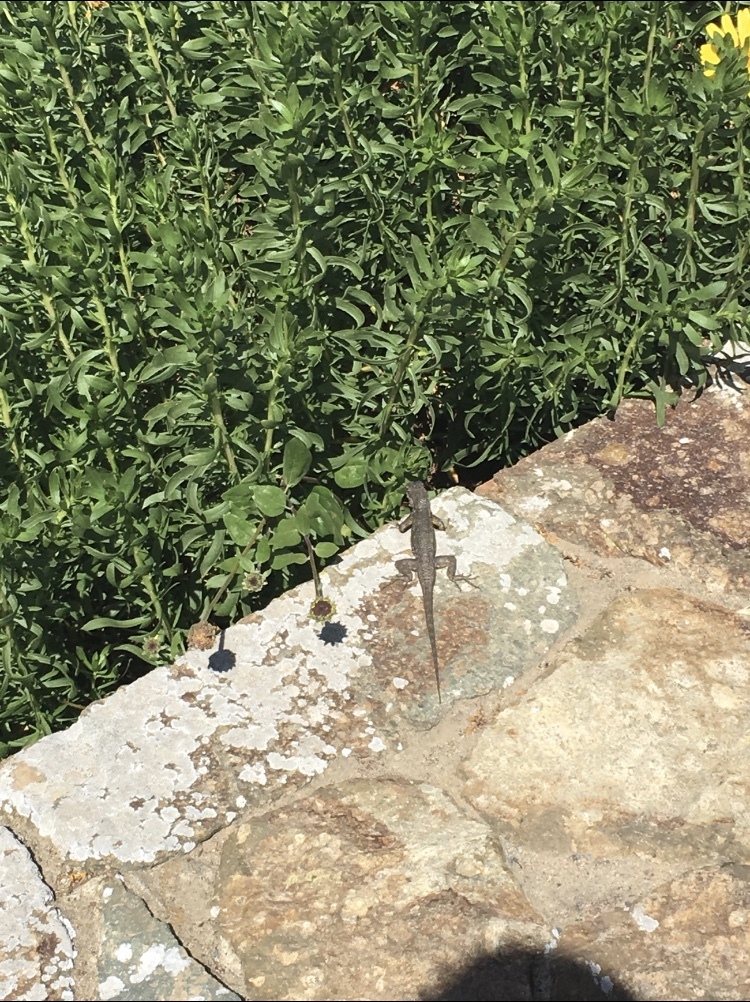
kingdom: Animalia
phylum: Chordata
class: Squamata
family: Phrynosomatidae
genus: Sceloporus
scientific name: Sceloporus occidentalis
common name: Western fence lizard
